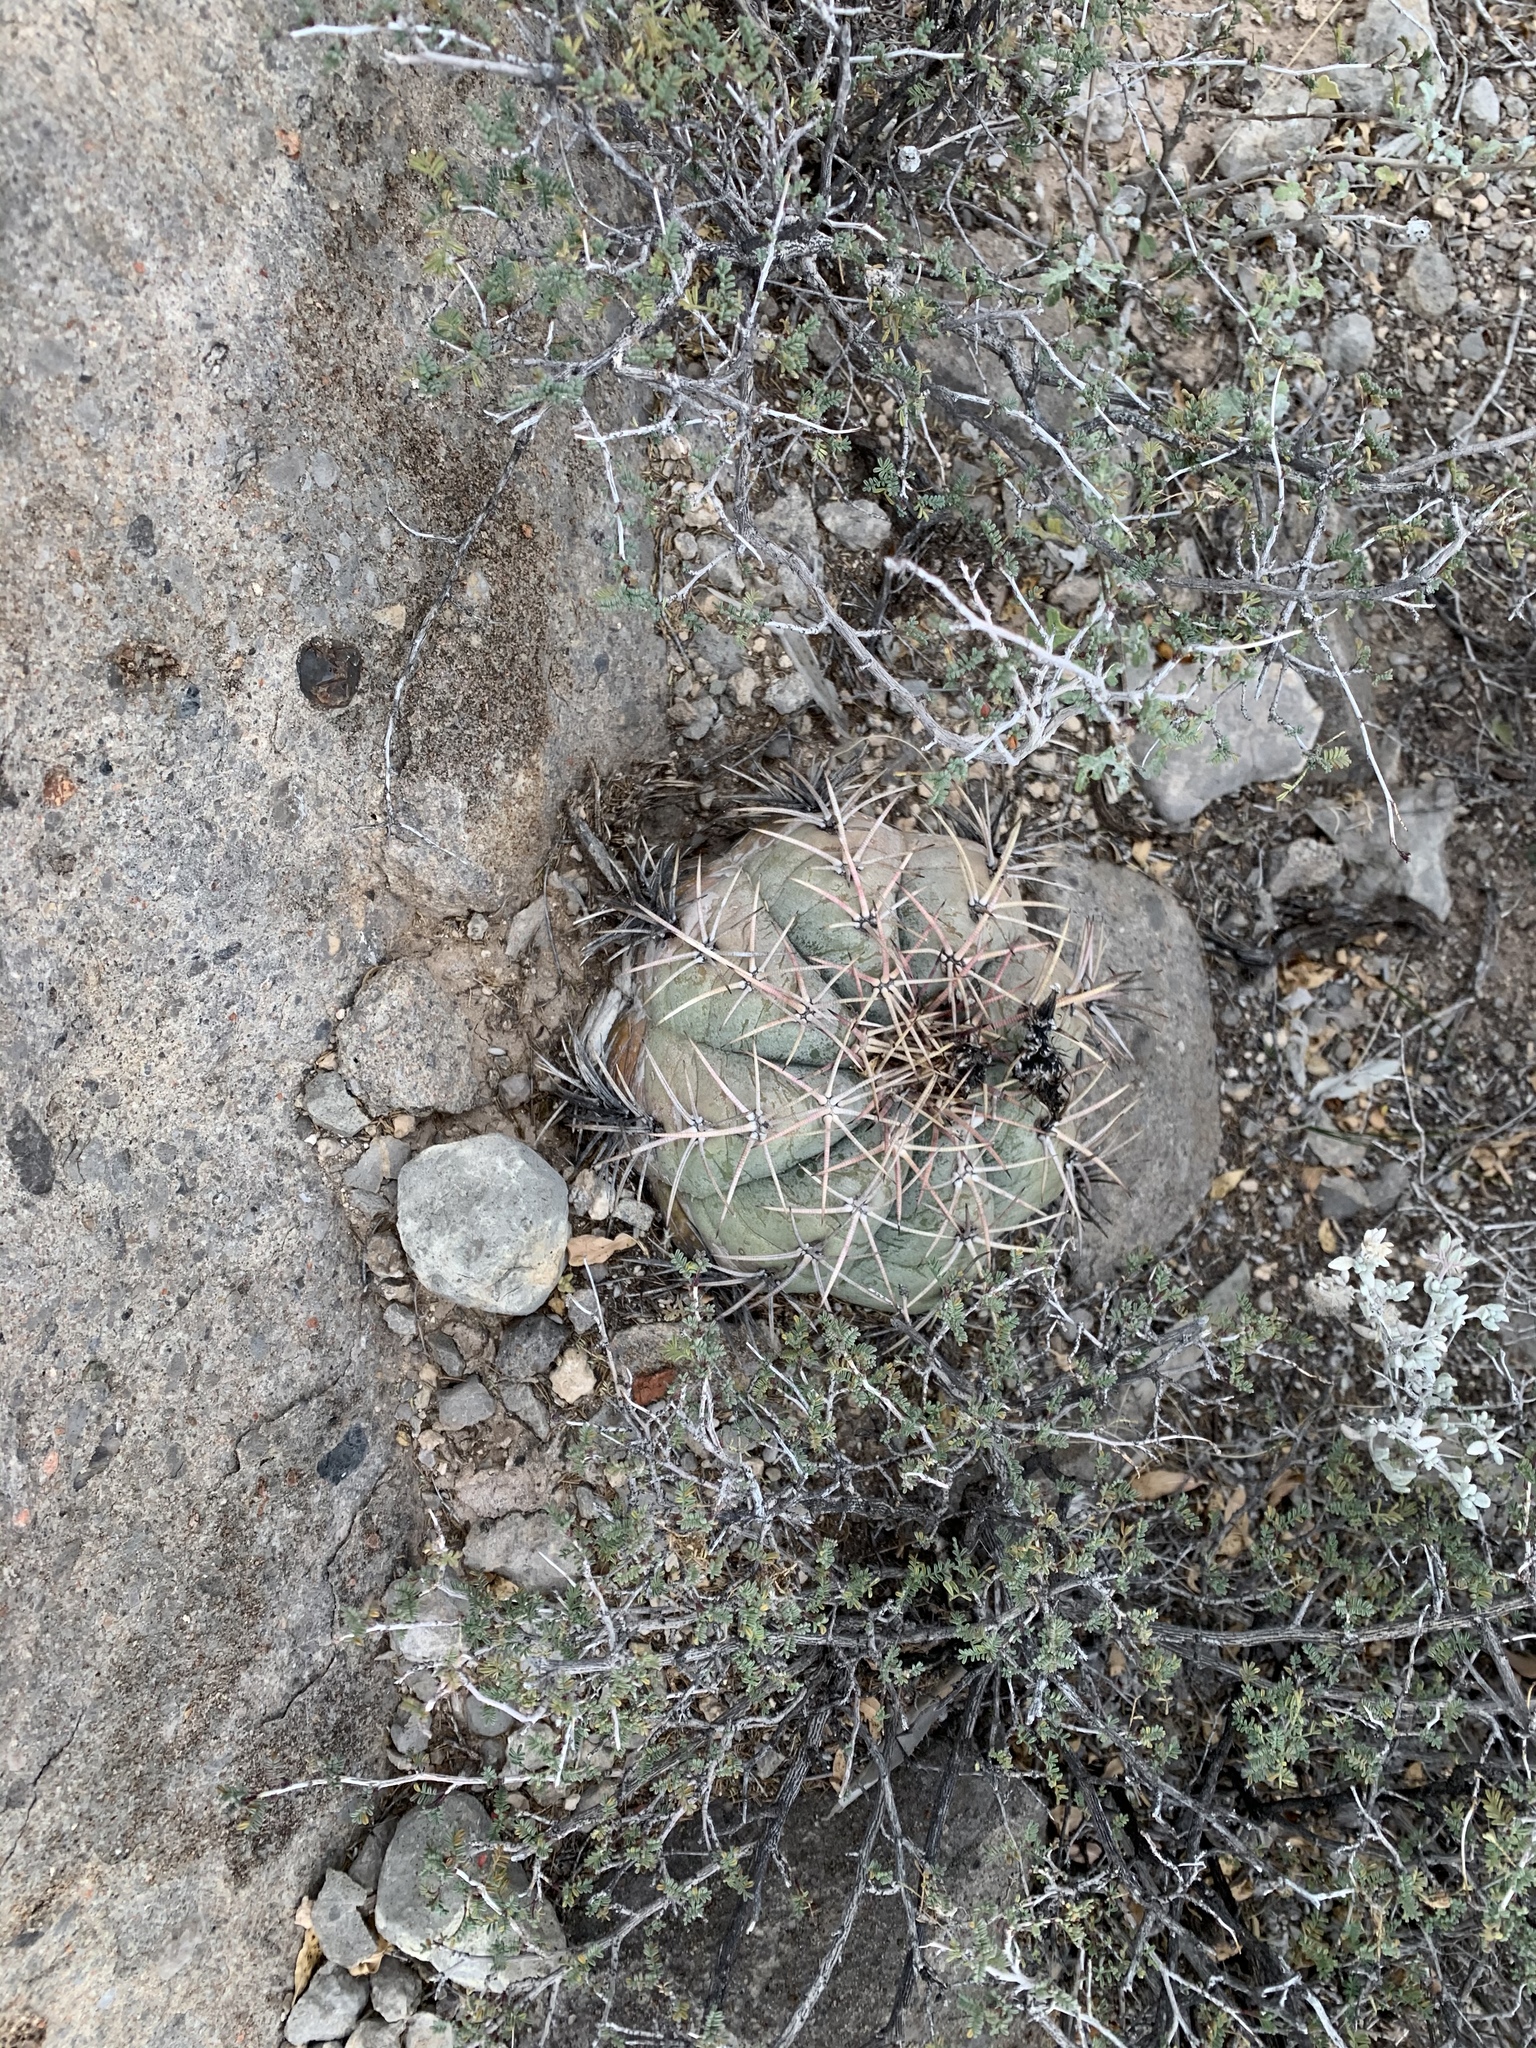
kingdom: Plantae
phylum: Tracheophyta
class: Magnoliopsida
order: Caryophyllales
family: Cactaceae
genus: Echinocactus
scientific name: Echinocactus horizonthalonius
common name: Devilshead
